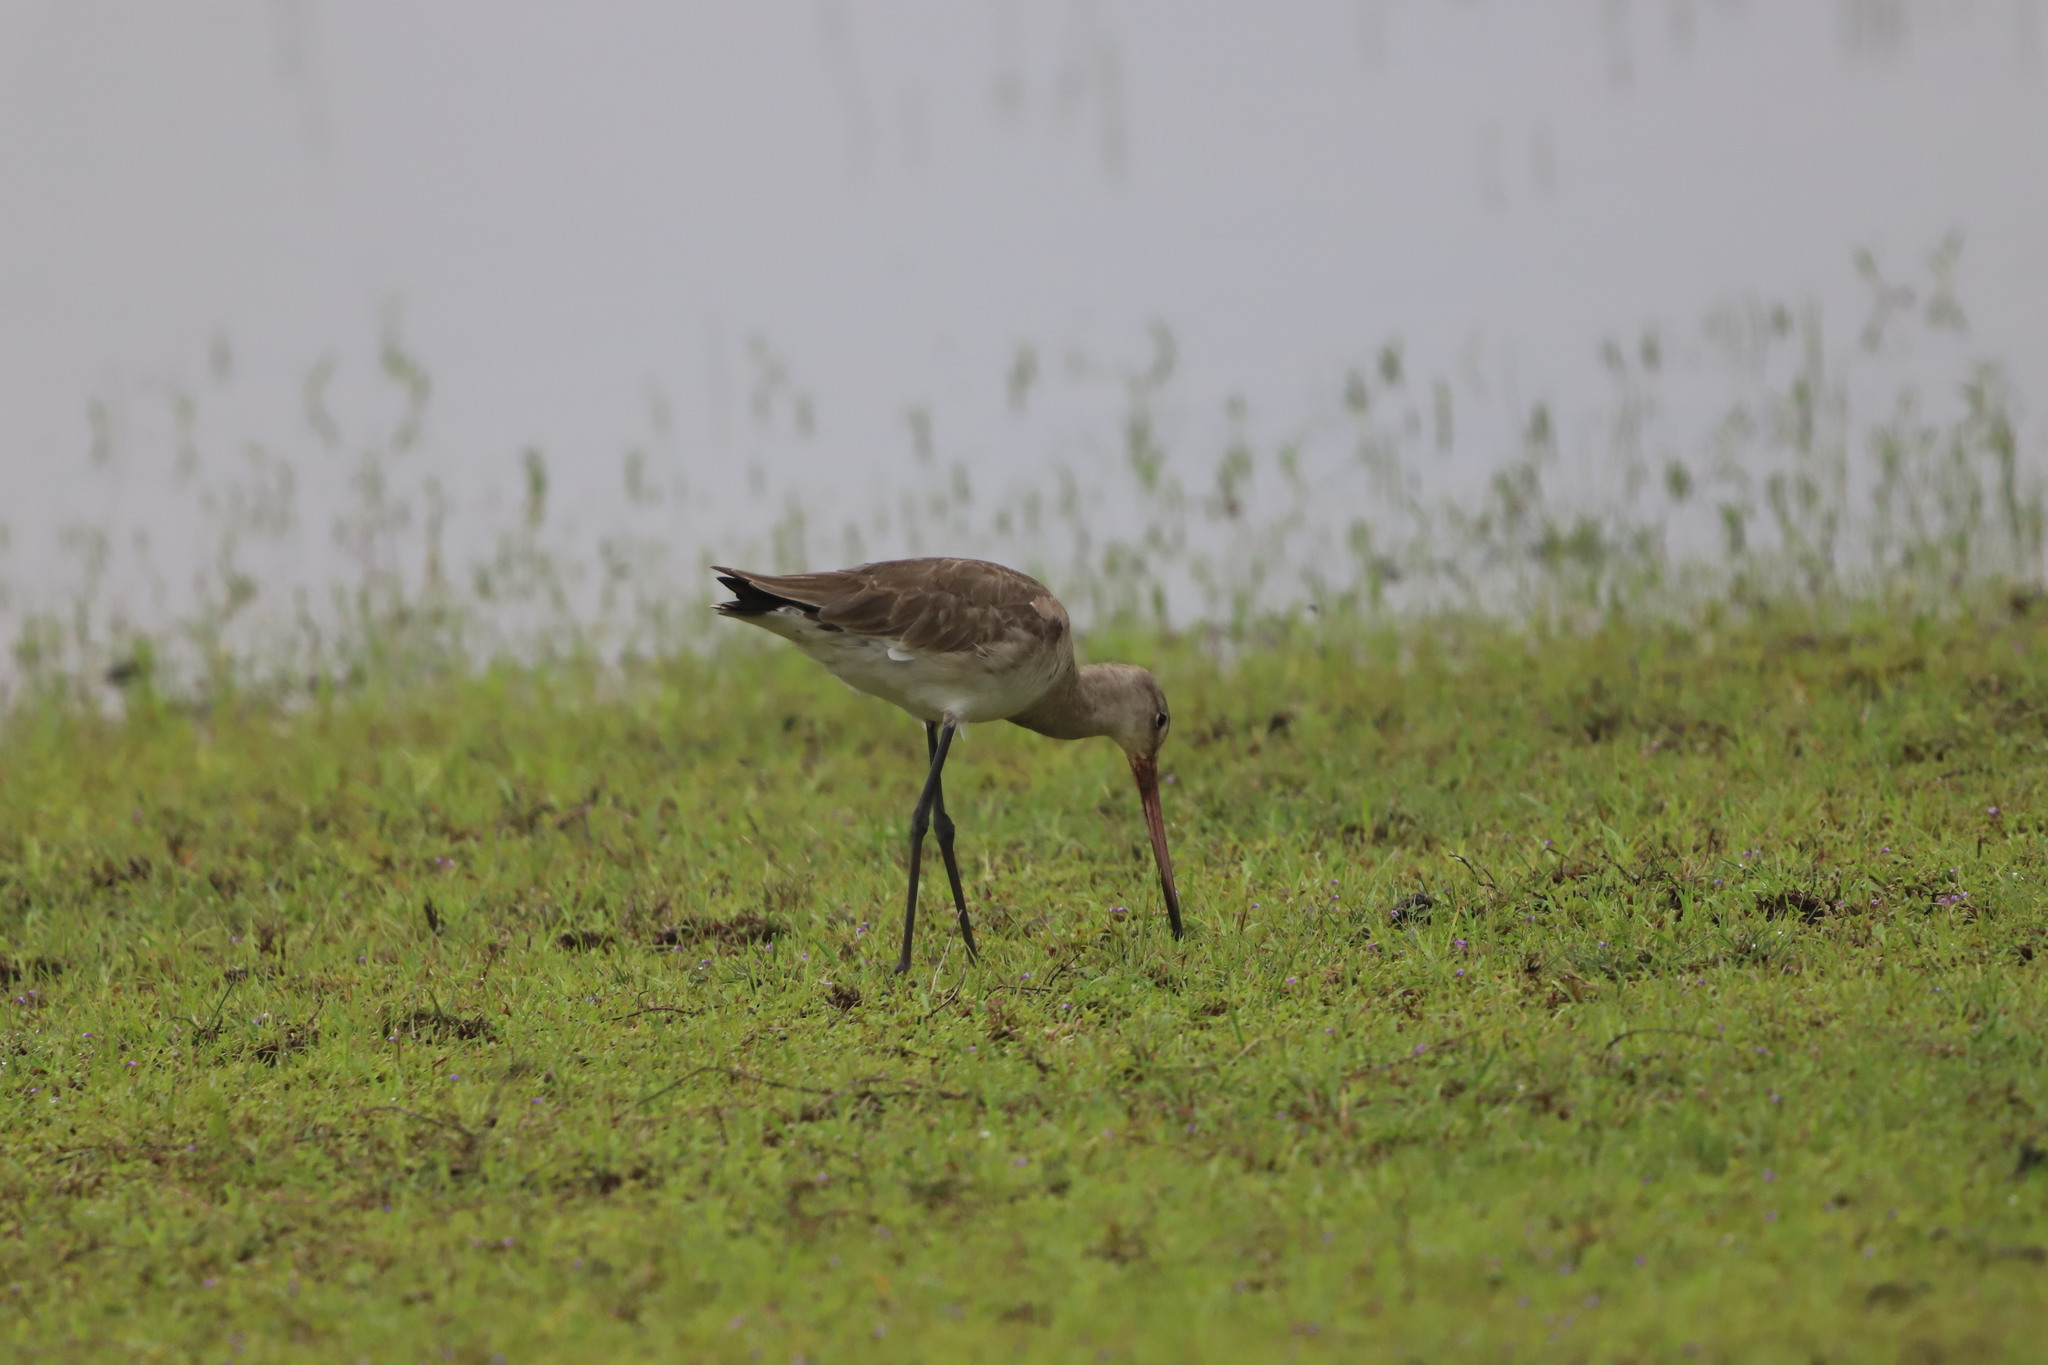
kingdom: Animalia
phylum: Chordata
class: Aves
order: Charadriiformes
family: Scolopacidae
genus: Limosa
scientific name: Limosa limosa
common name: Black-tailed godwit
